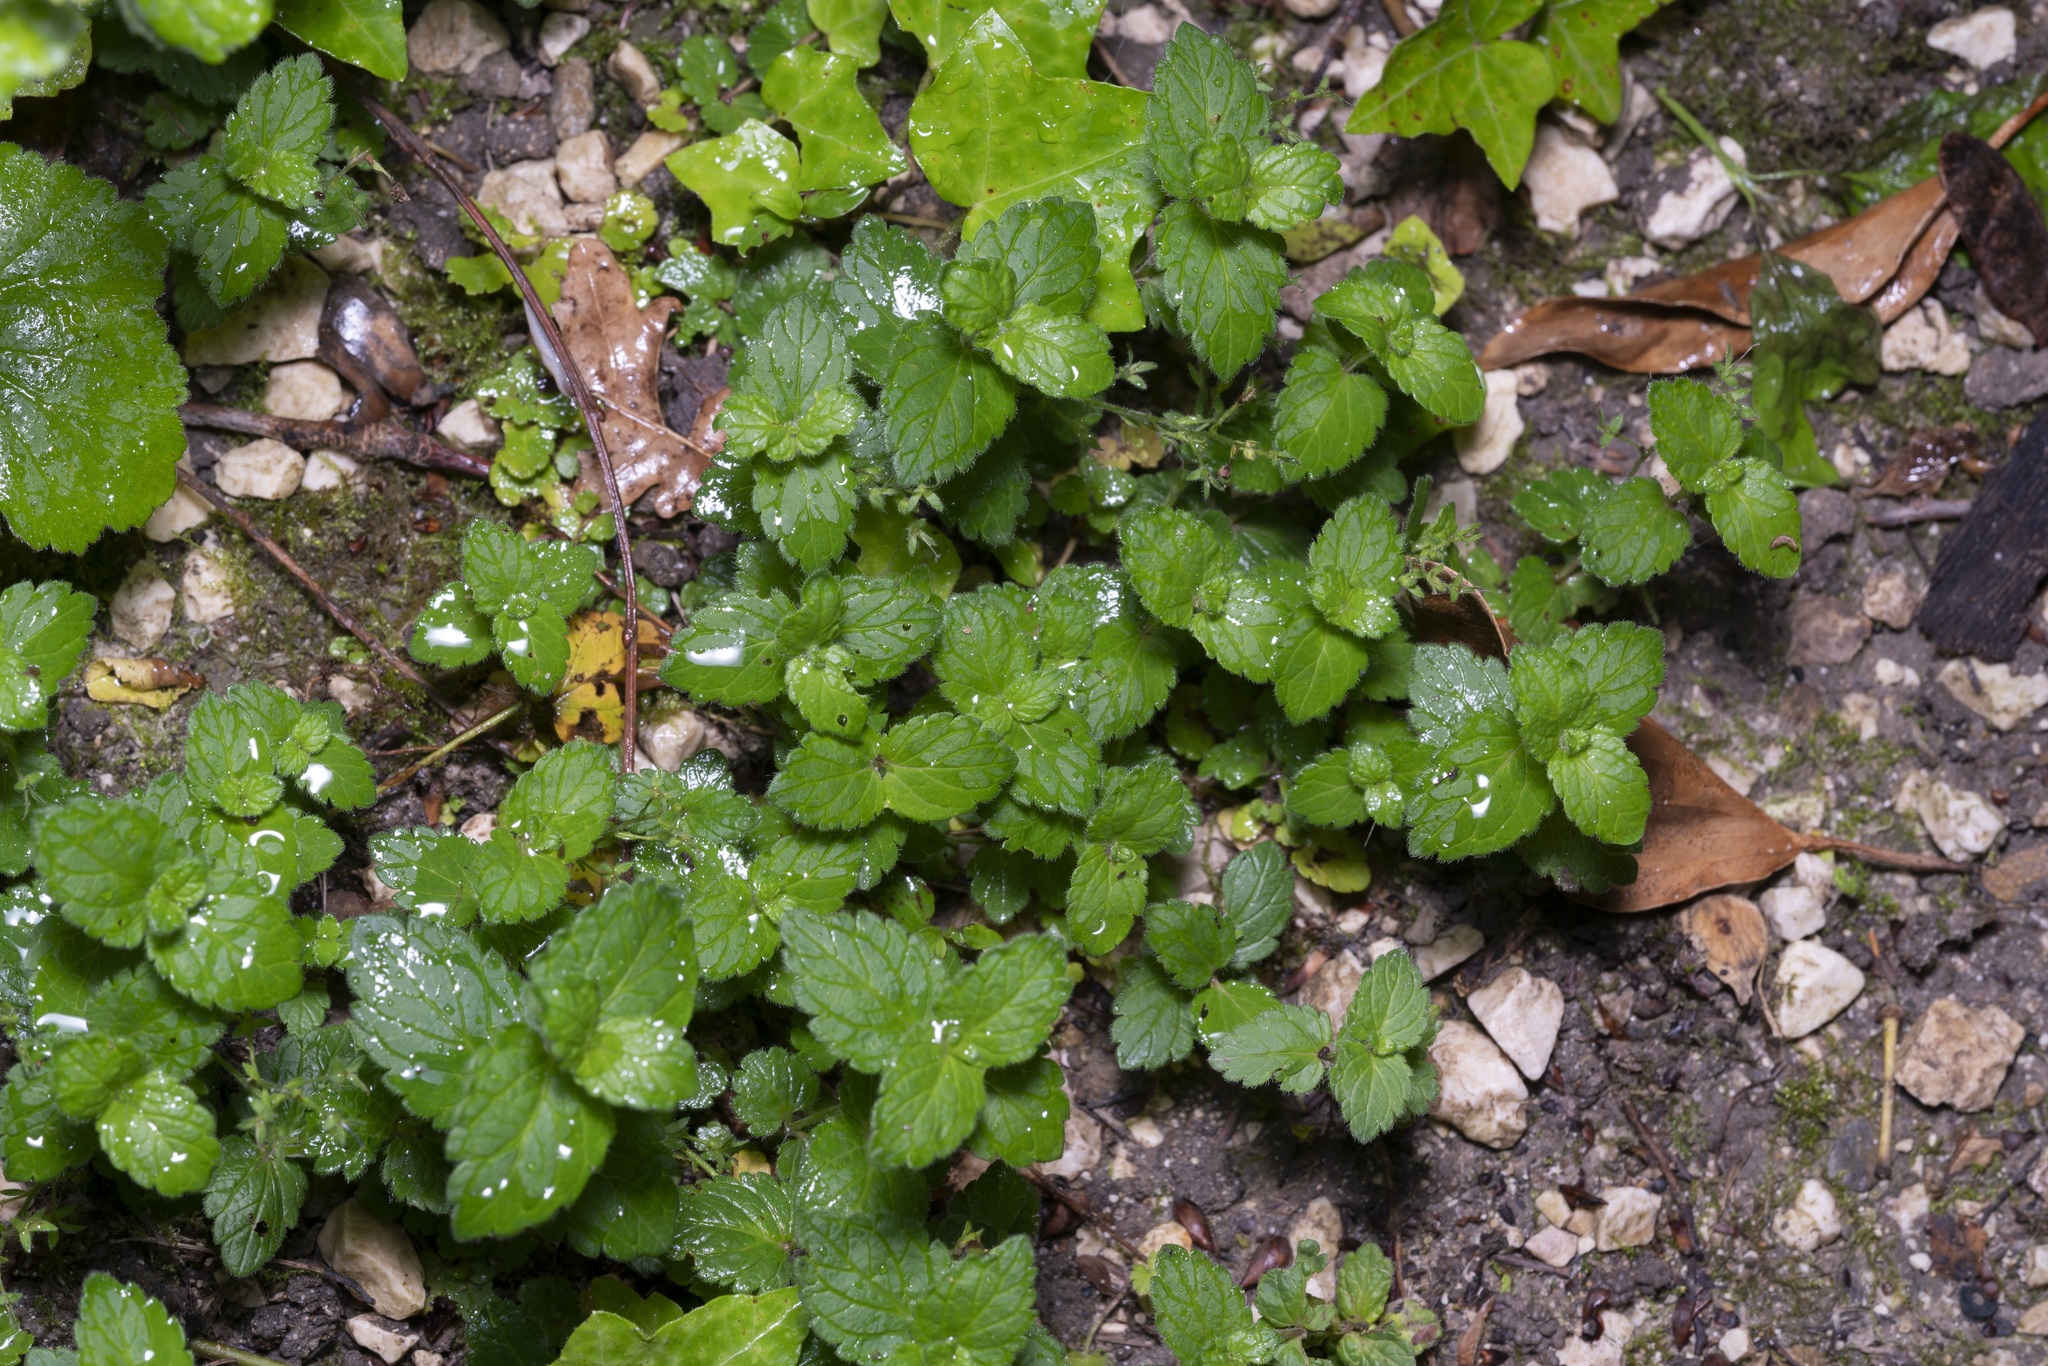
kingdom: Plantae
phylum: Tracheophyta
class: Magnoliopsida
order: Lamiales
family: Plantaginaceae
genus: Veronica
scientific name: Veronica chamaedrys
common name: Germander speedwell
